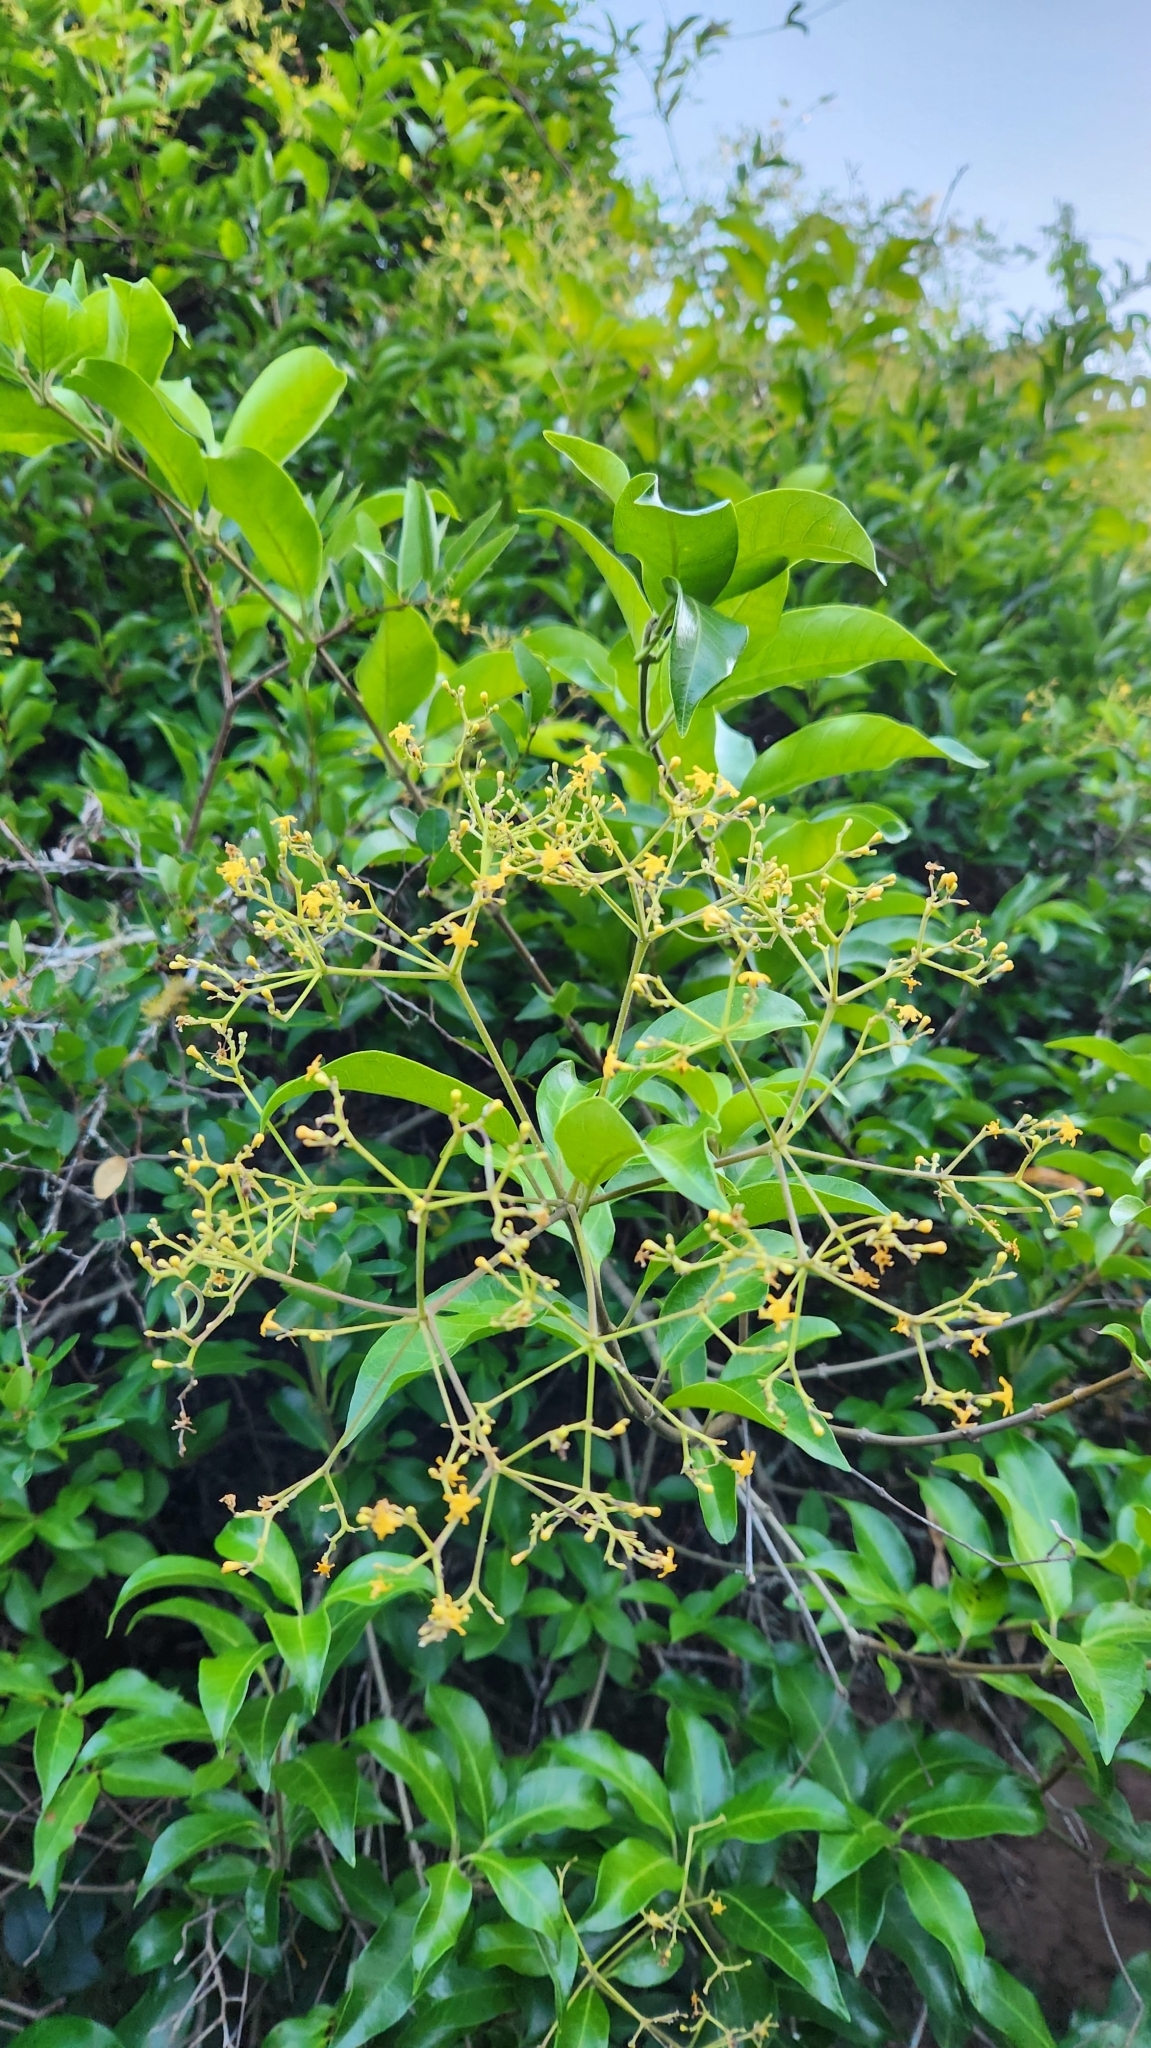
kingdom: Plantae
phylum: Tracheophyta
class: Magnoliopsida
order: Gentianales
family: Apocynaceae
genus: Condylocarpon
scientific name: Condylocarpon isthmicum
